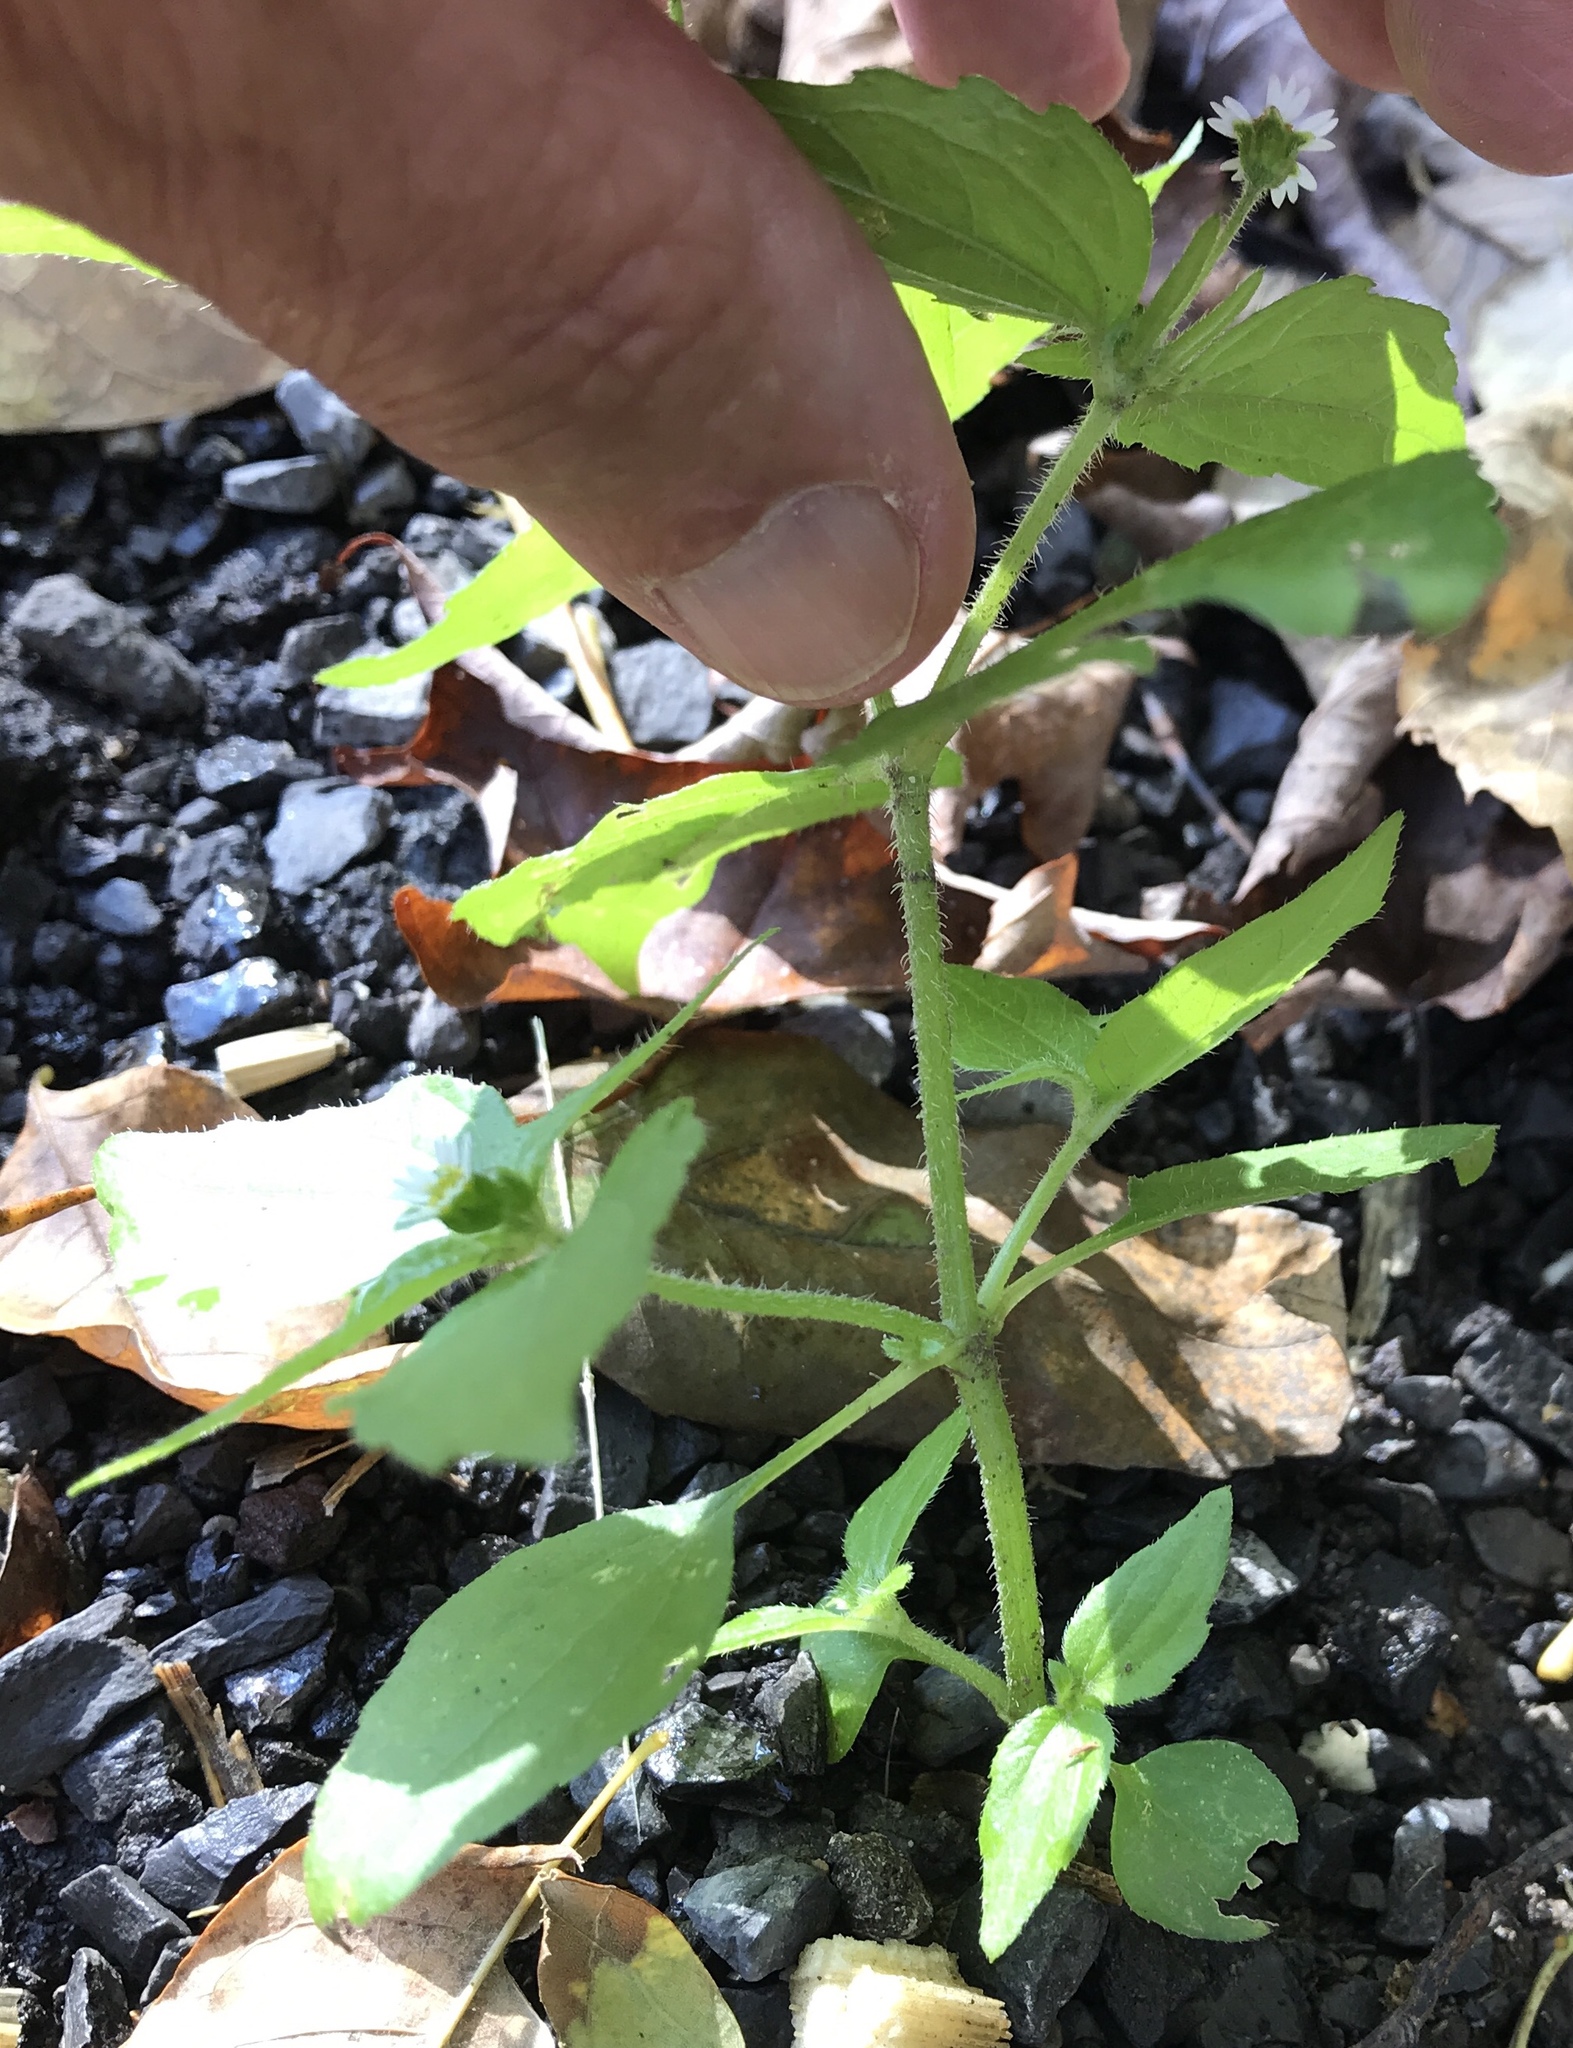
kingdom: Plantae
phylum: Tracheophyta
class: Magnoliopsida
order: Asterales
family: Asteraceae
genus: Galinsoga
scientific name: Galinsoga quadriradiata
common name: Shaggy soldier
